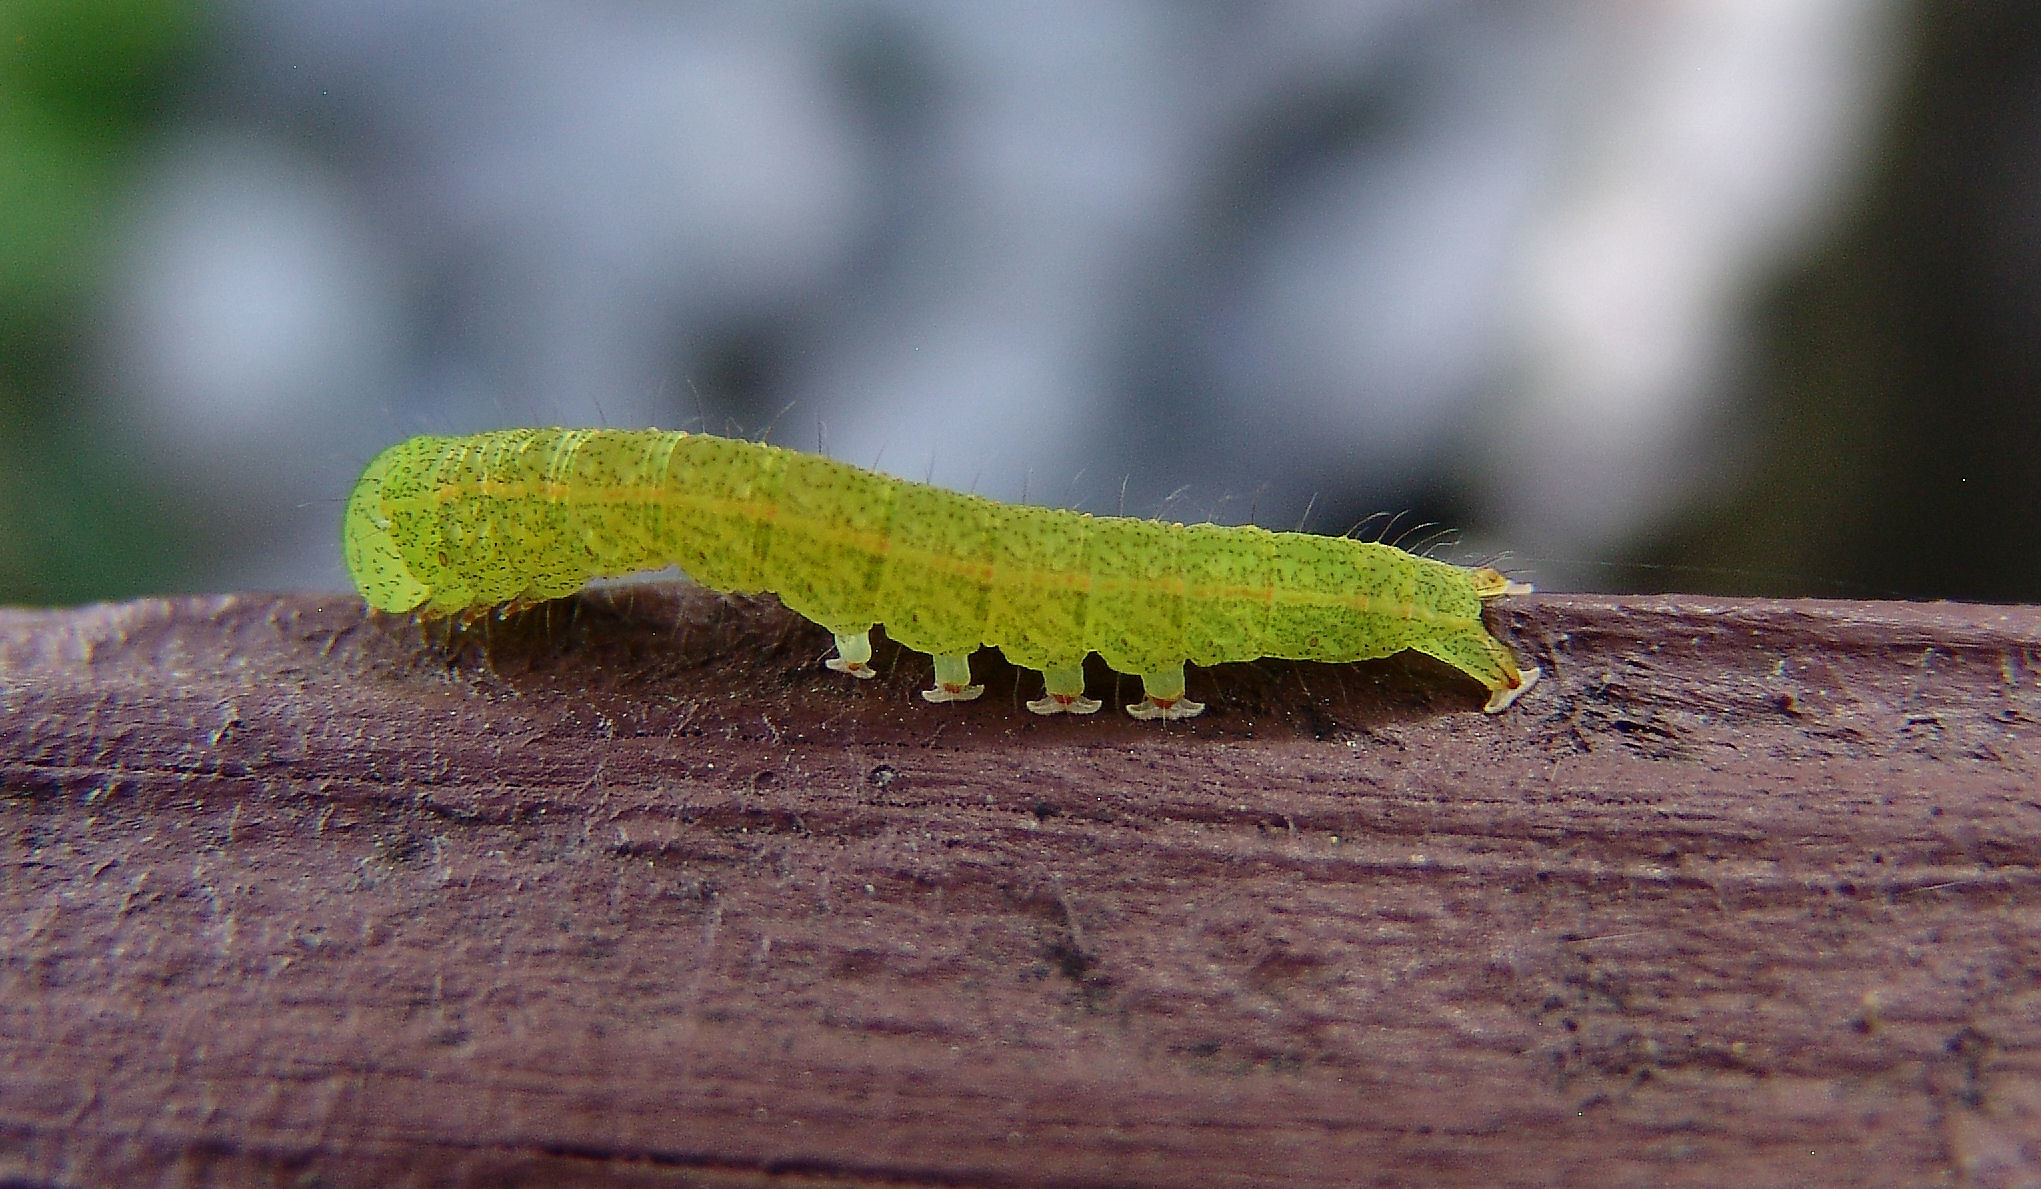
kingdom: Animalia
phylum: Arthropoda
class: Insecta
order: Lepidoptera
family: Erebidae
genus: Panopoda
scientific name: Panopoda rufimargo
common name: Red-lined panopoda moth
